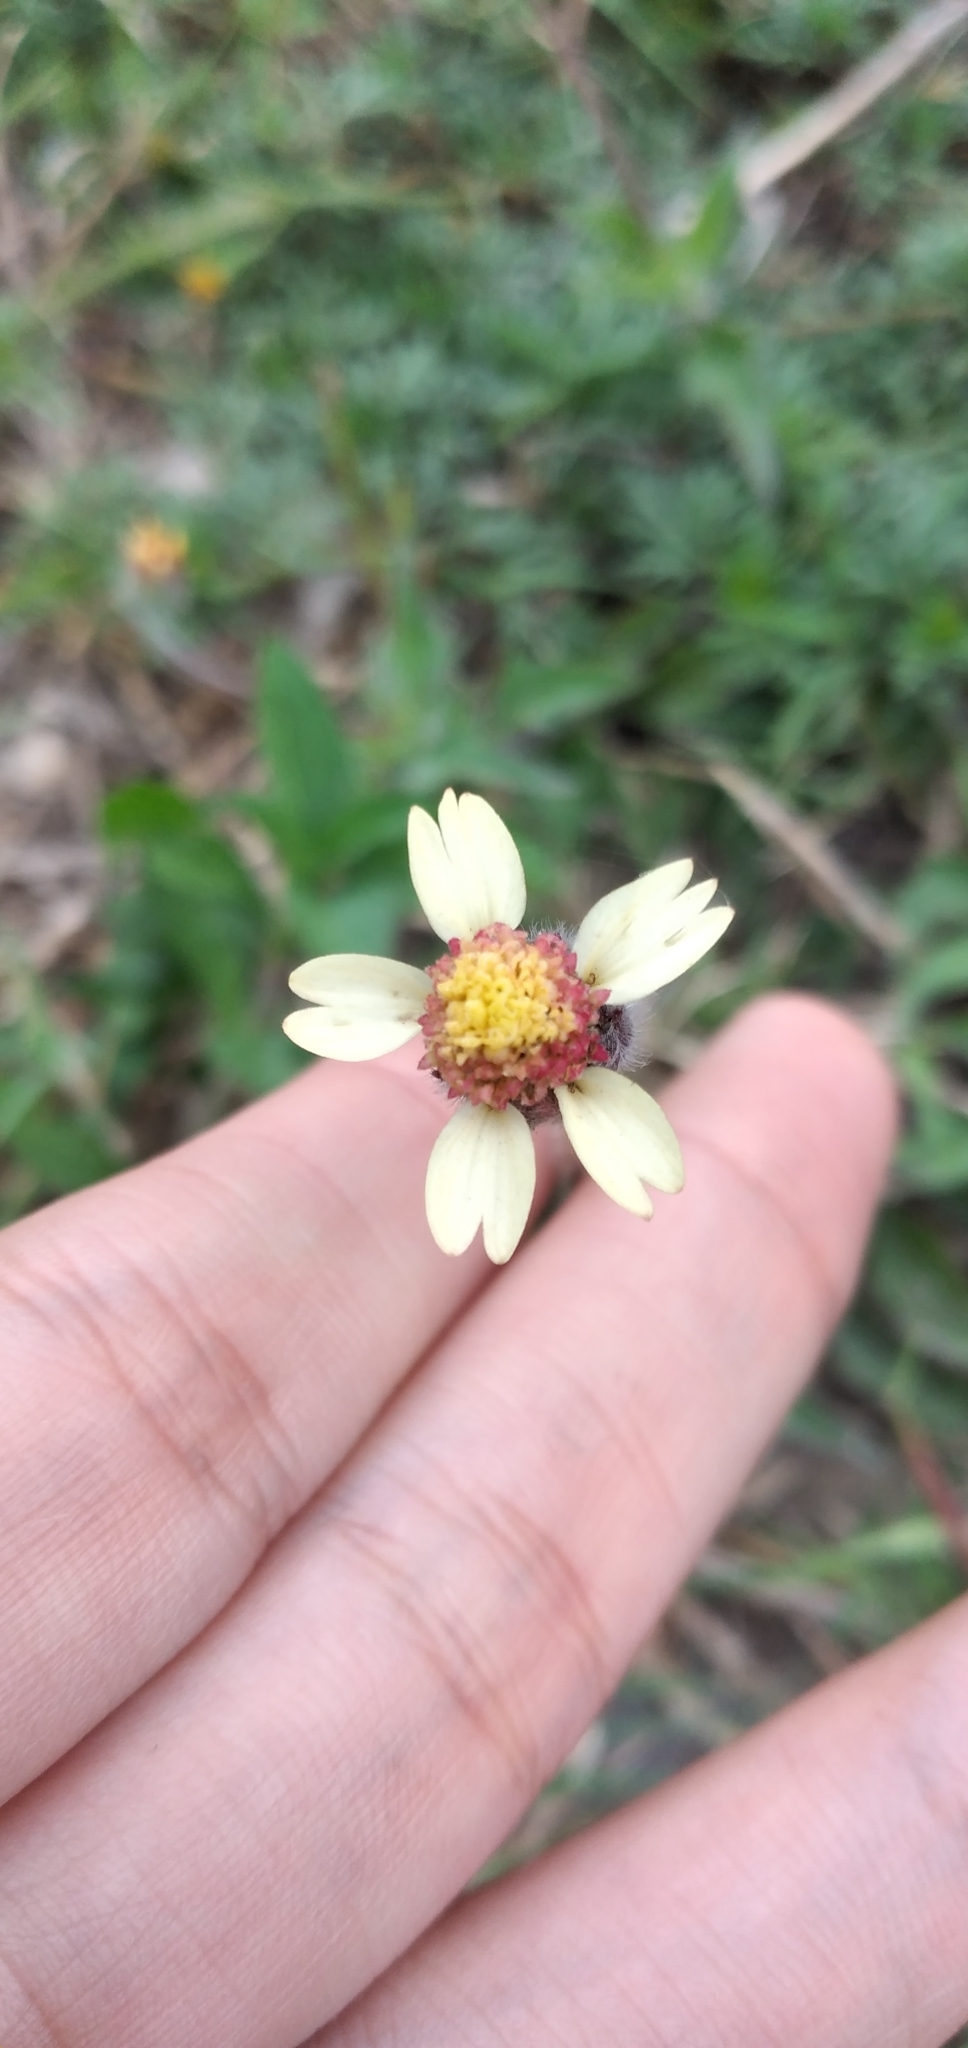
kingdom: Plantae
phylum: Tracheophyta
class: Magnoliopsida
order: Asterales
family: Asteraceae
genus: Tridax
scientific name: Tridax procumbens
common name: Coatbuttons
